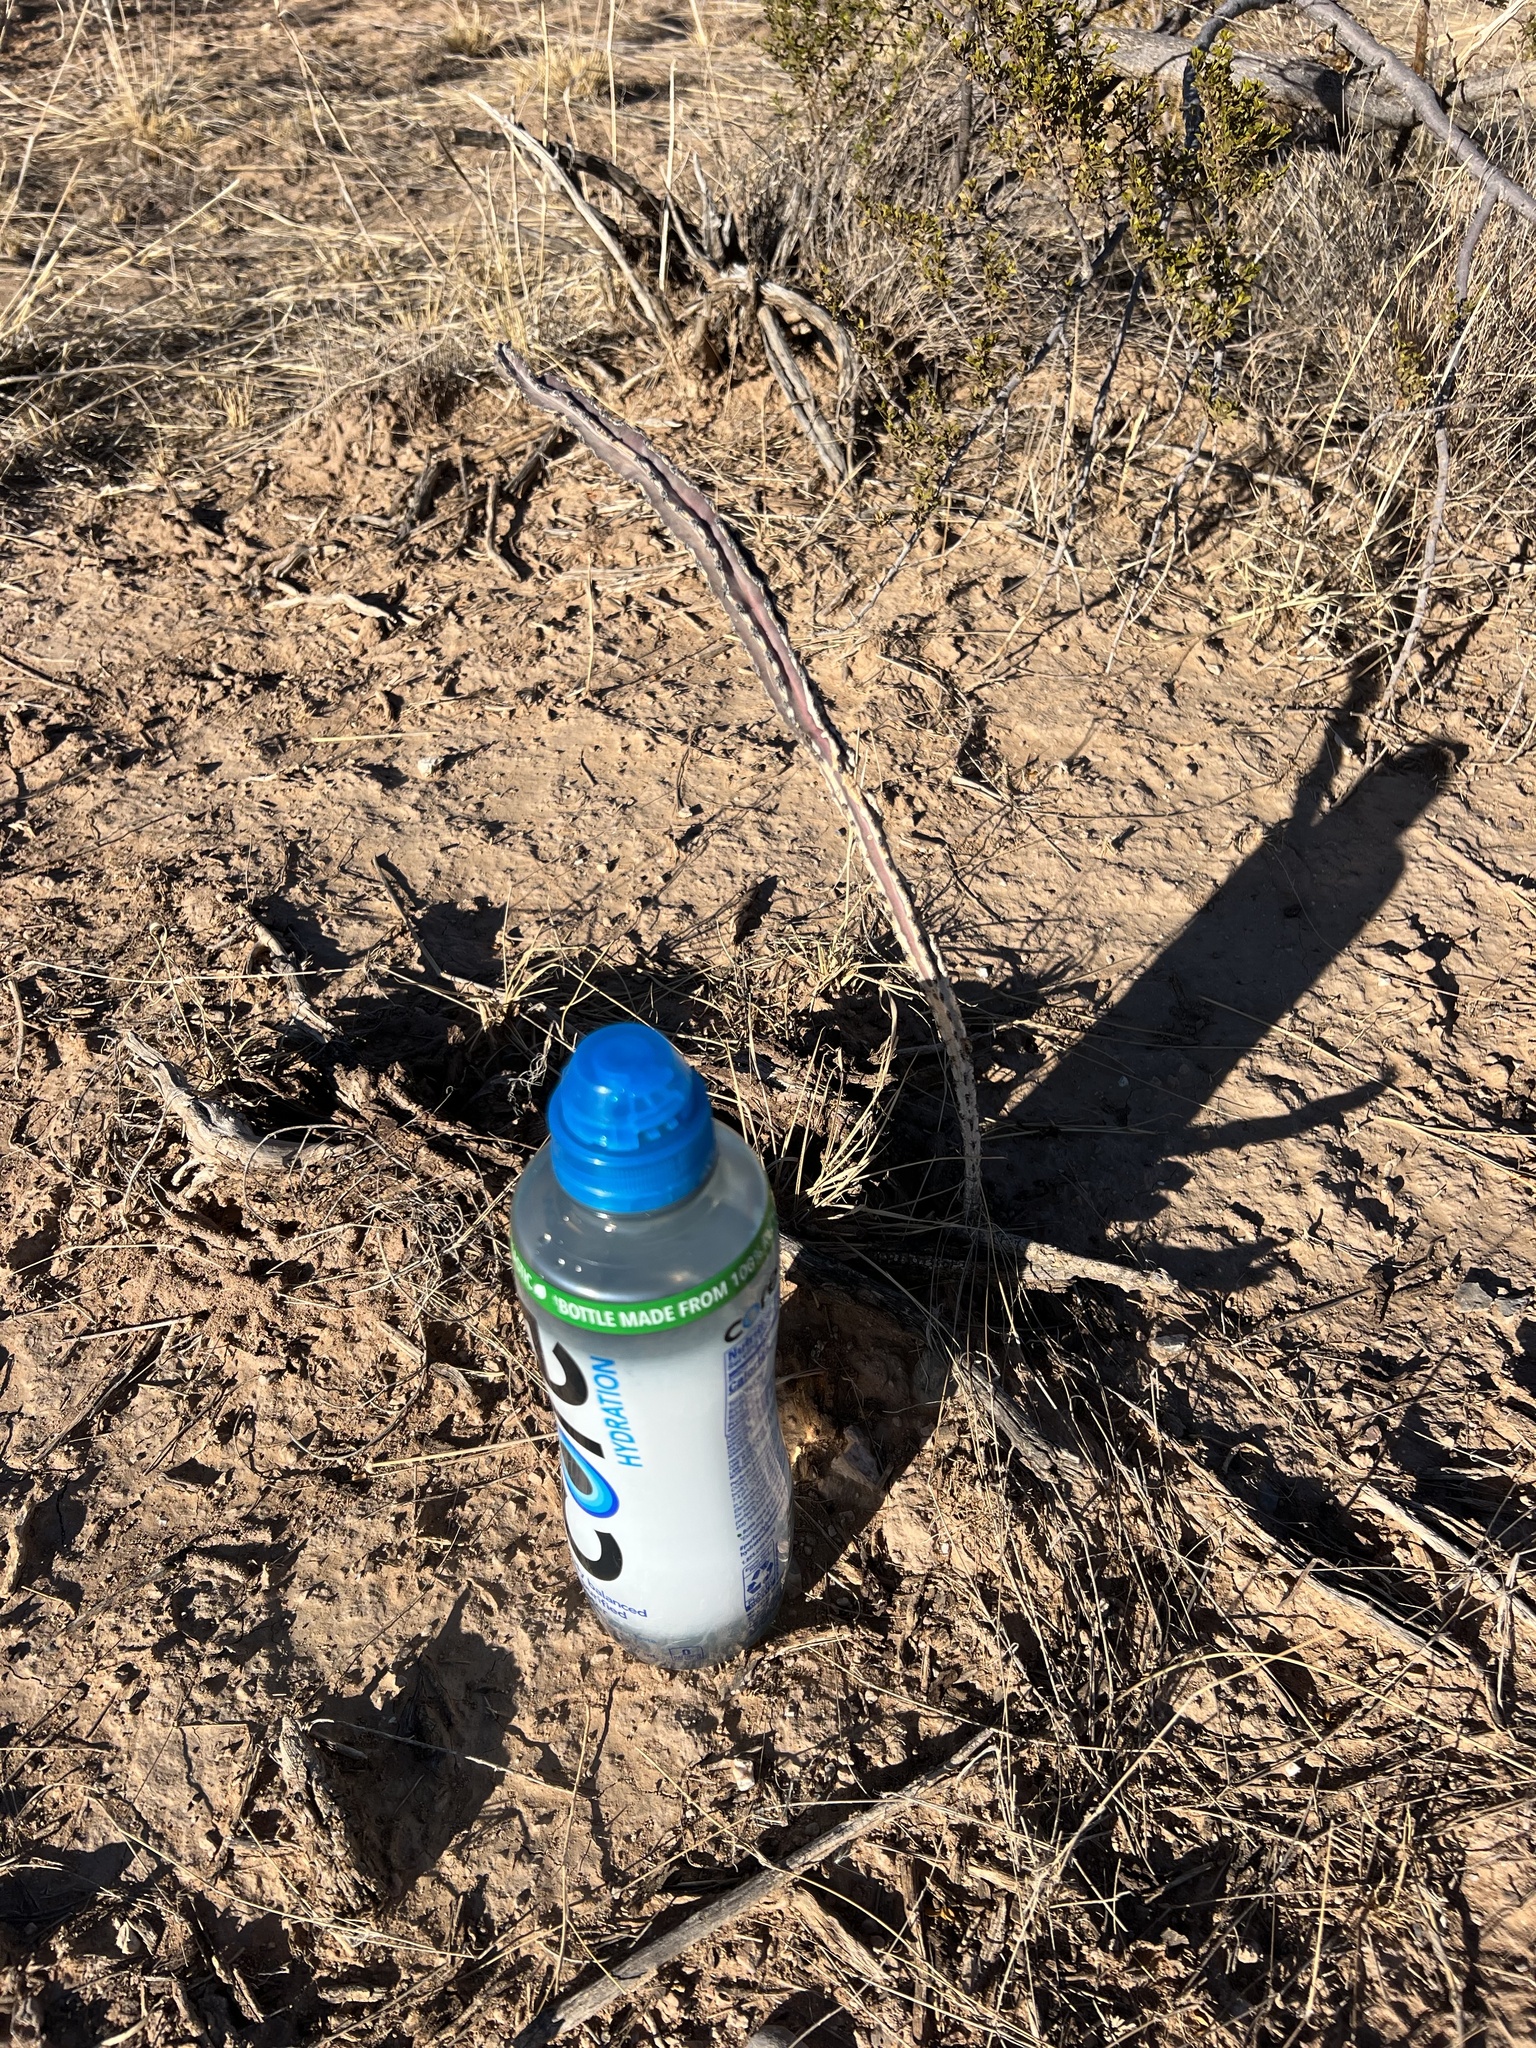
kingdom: Plantae
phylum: Tracheophyta
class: Magnoliopsida
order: Caryophyllales
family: Cactaceae
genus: Peniocereus
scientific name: Peniocereus greggii
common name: Desert night-blooming cereus
